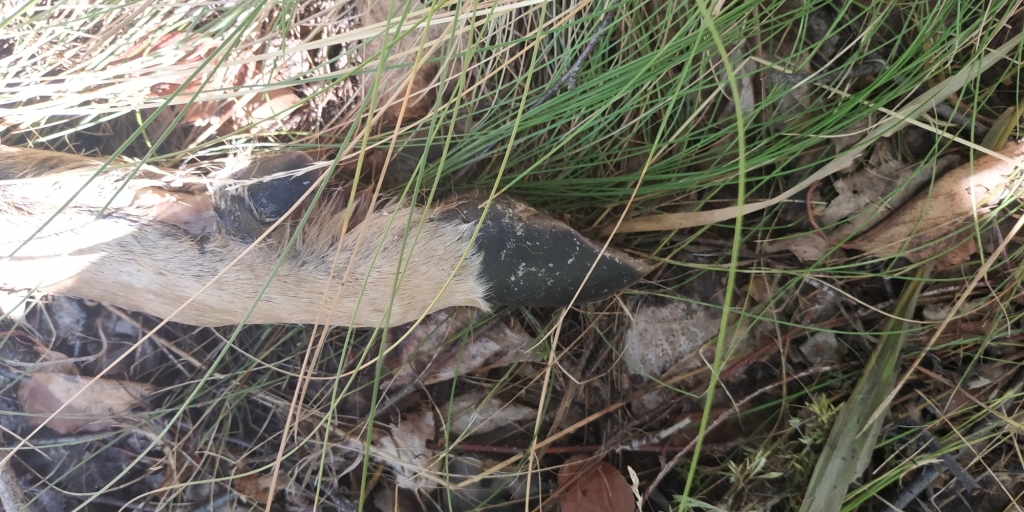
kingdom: Animalia
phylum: Chordata
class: Mammalia
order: Artiodactyla
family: Cervidae
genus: Capreolus
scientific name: Capreolus pygargus
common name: Siberian roe
